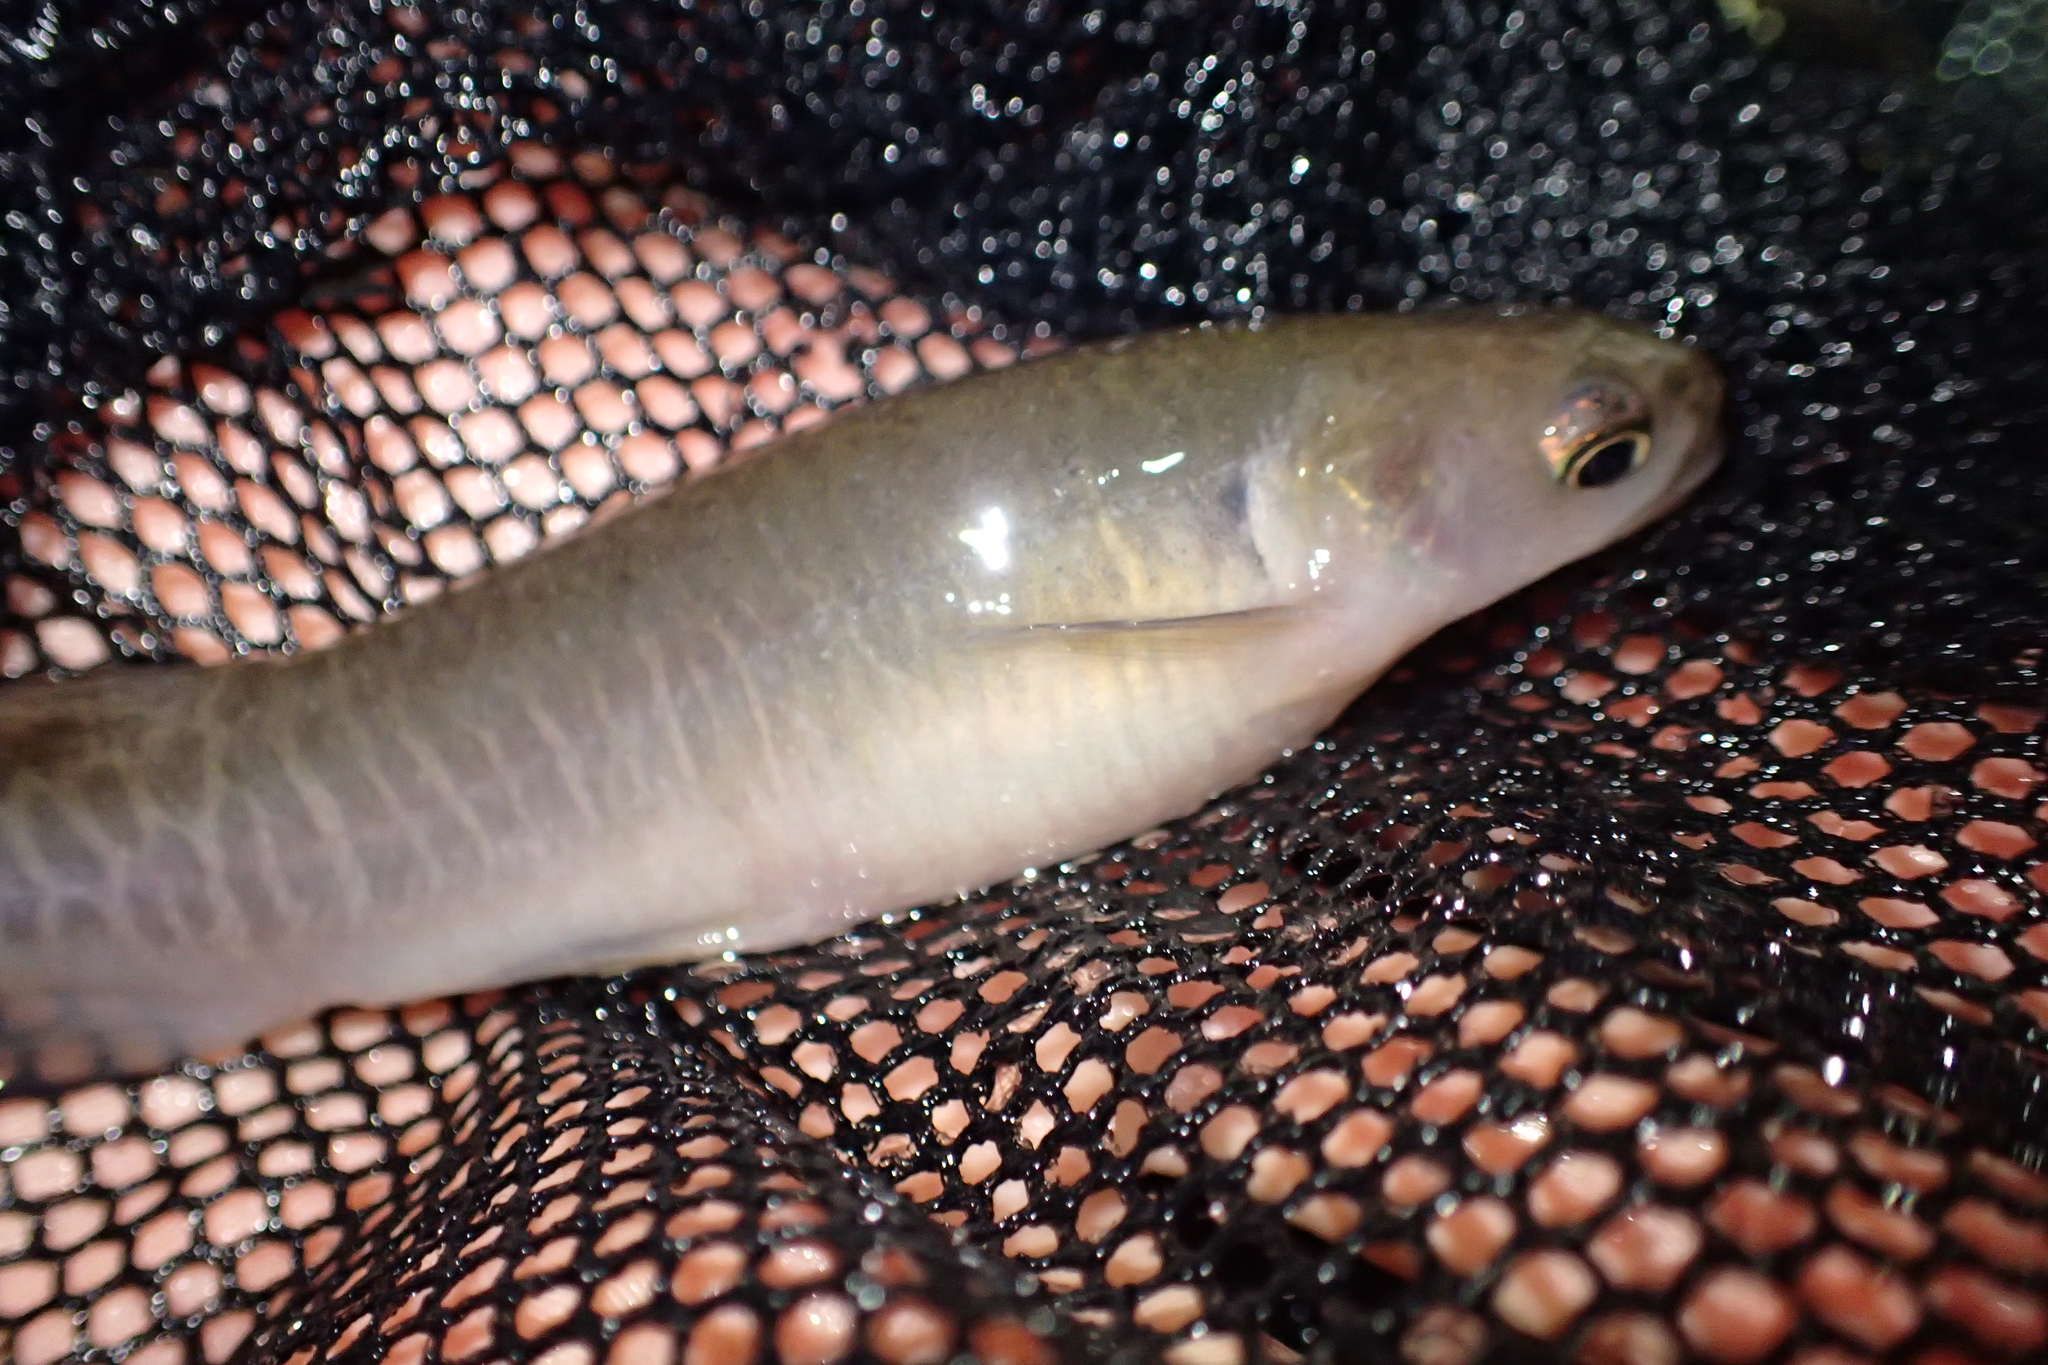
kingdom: Animalia
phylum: Chordata
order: Osmeriformes
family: Galaxiidae
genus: Galaxias
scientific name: Galaxias fasciatus
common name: Banded kokopu
